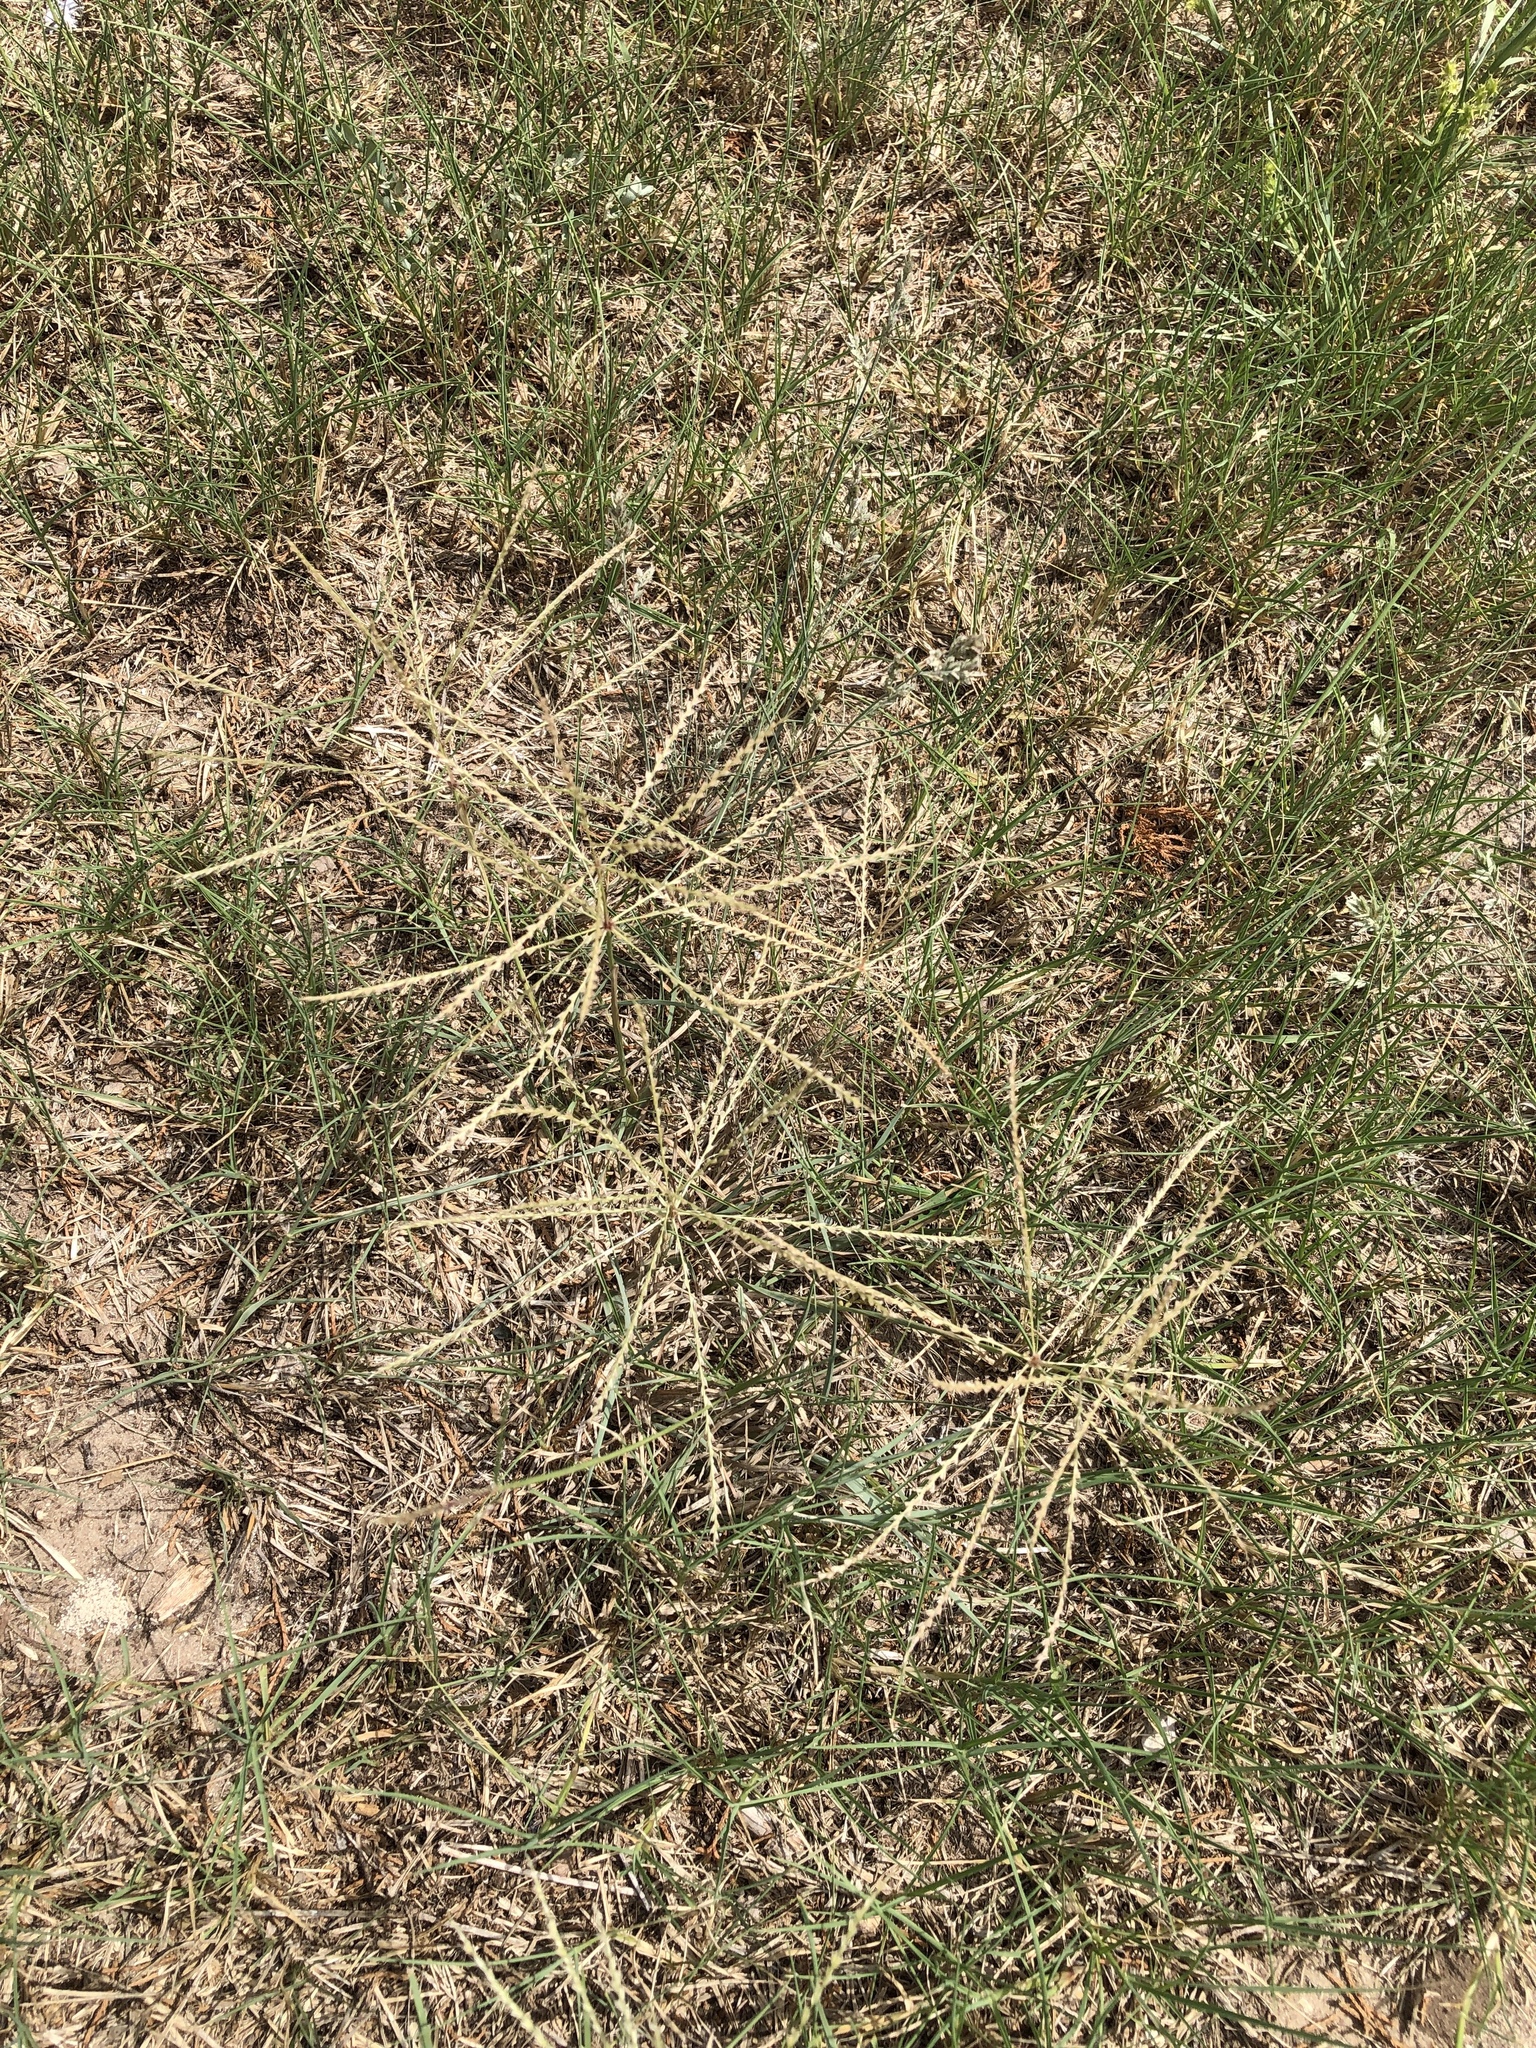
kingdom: Plantae
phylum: Tracheophyta
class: Liliopsida
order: Poales
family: Poaceae
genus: Chloris
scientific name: Chloris verticillata
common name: Tumble windmill grass
